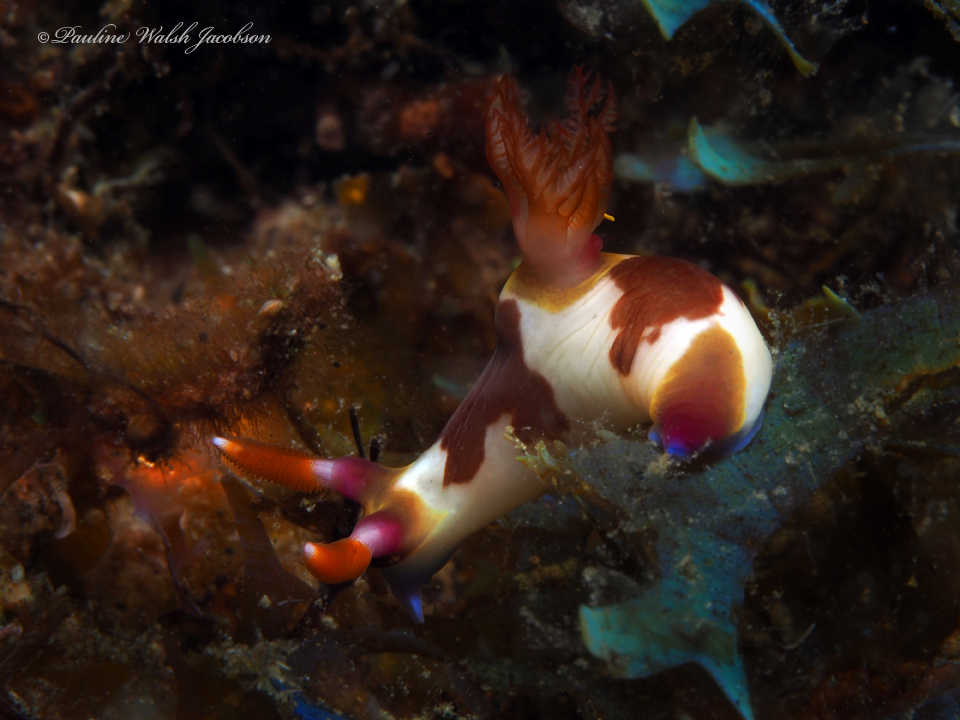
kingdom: Animalia
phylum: Mollusca
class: Gastropoda
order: Nudibranchia
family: Polyceridae
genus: Nembrotha
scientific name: Nembrotha chamberlaini
